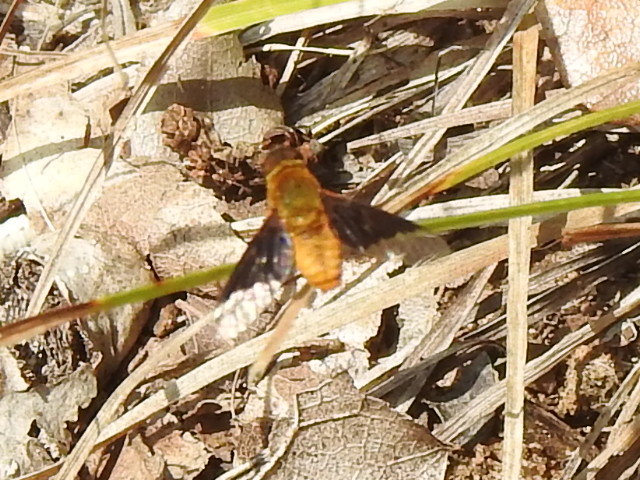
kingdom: Animalia
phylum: Arthropoda
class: Insecta
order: Diptera
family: Bombyliidae
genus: Chrysanthrax
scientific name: Chrysanthrax cypris
